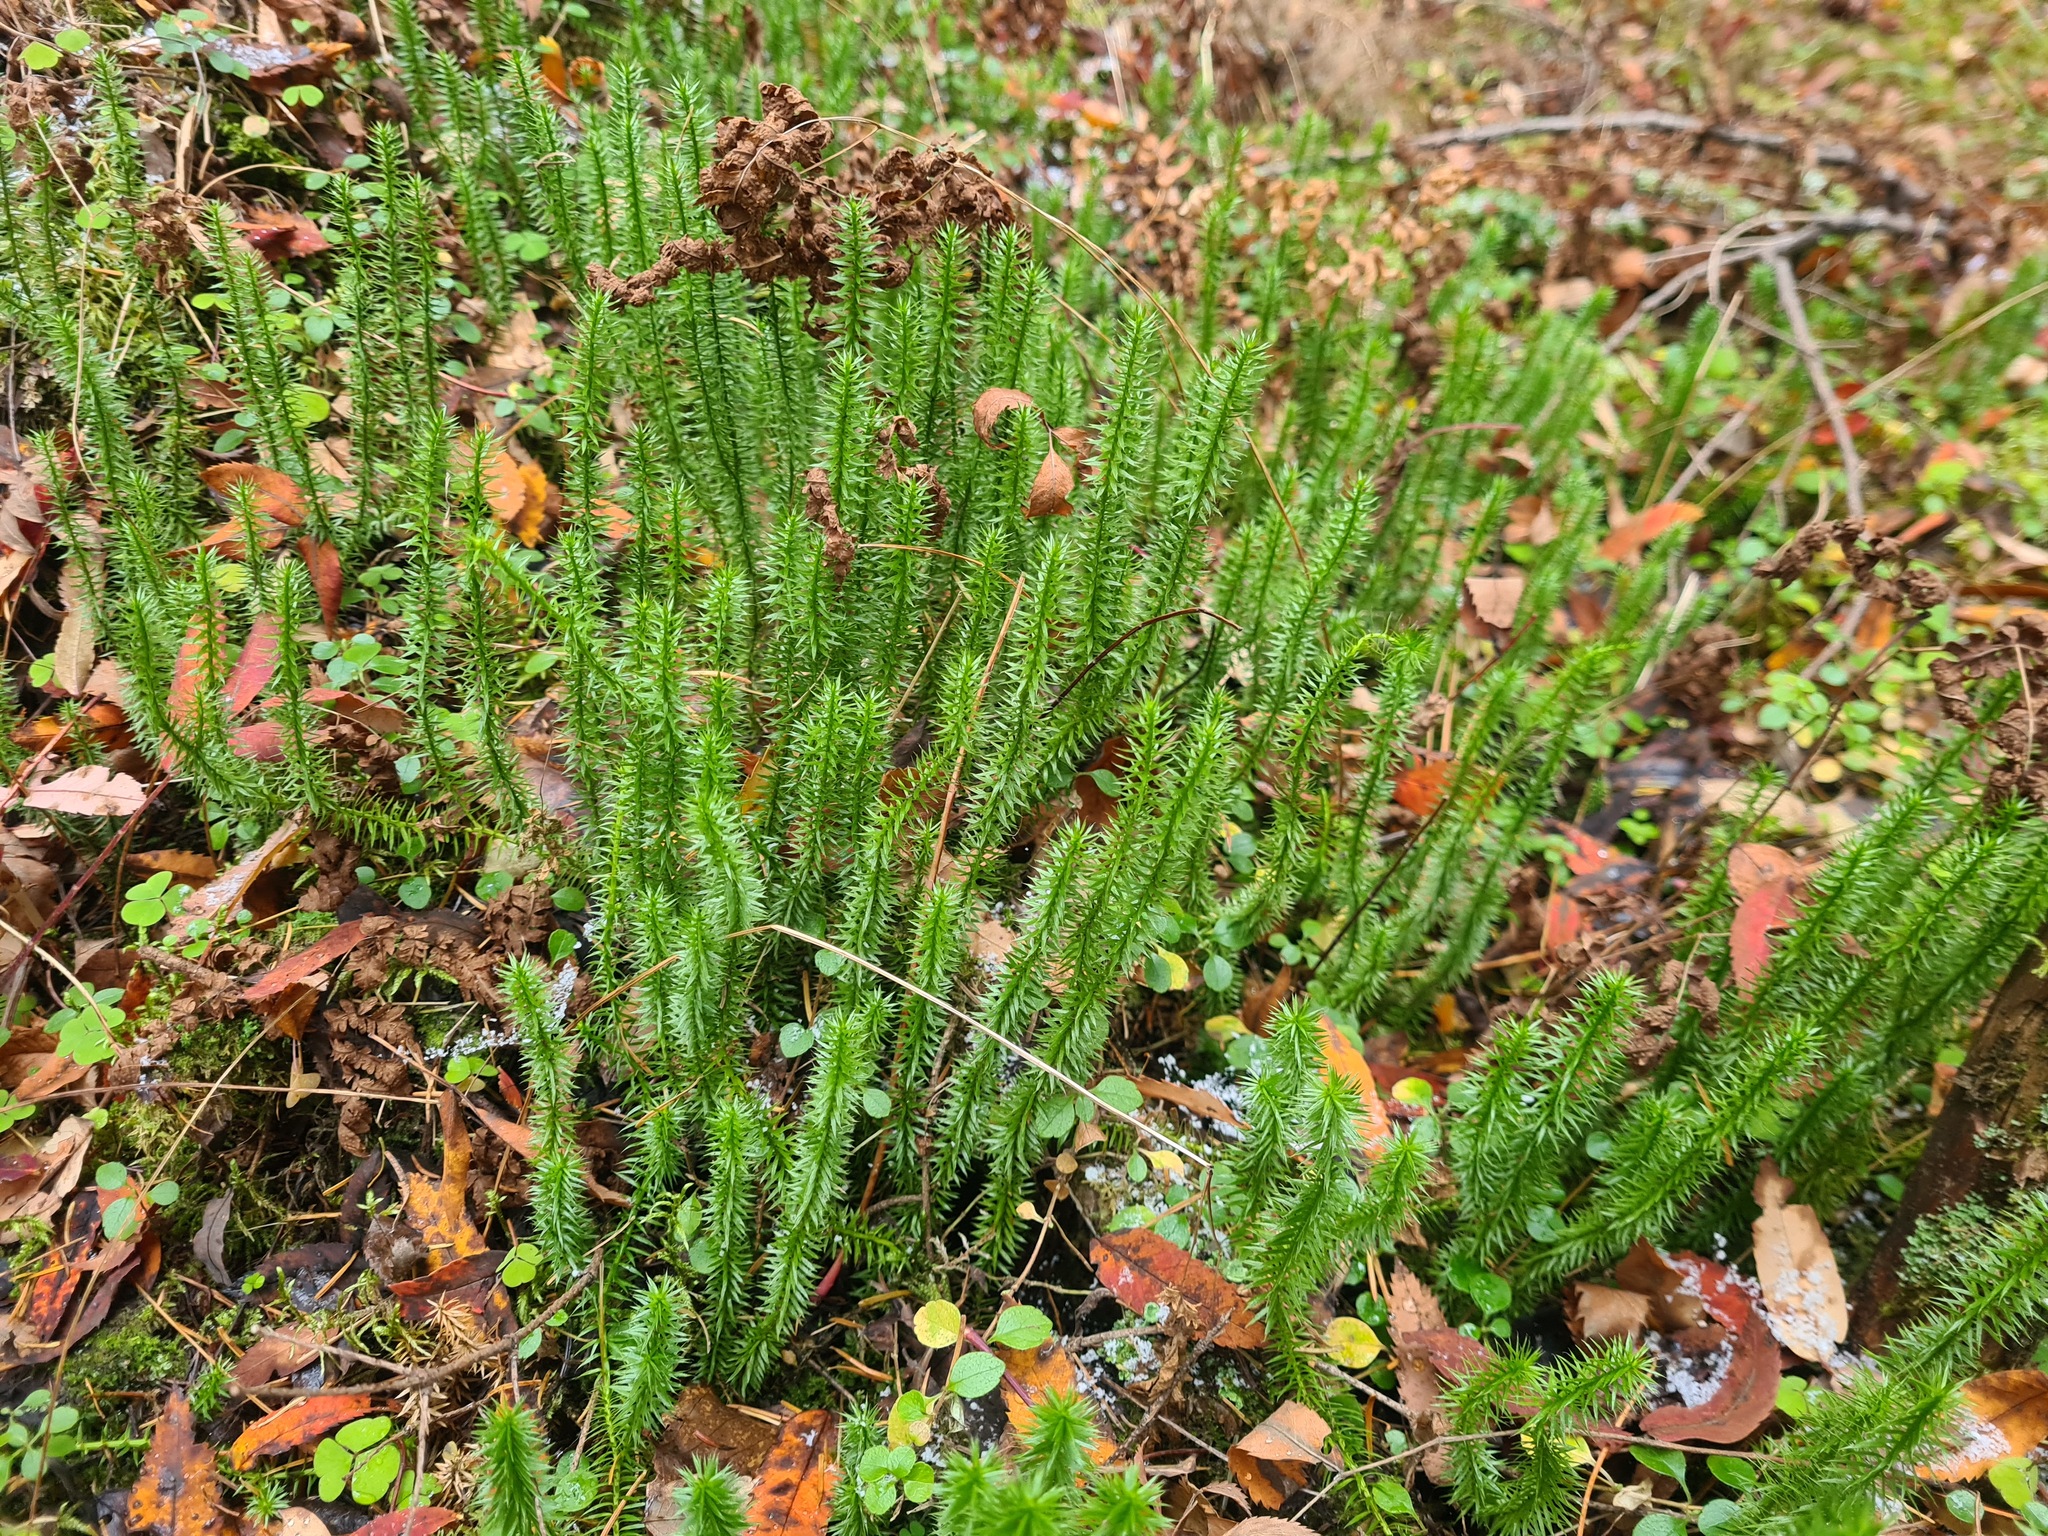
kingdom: Plantae
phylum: Tracheophyta
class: Lycopodiopsida
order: Lycopodiales
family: Lycopodiaceae
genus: Spinulum
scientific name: Spinulum annotinum
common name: Interrupted club-moss
